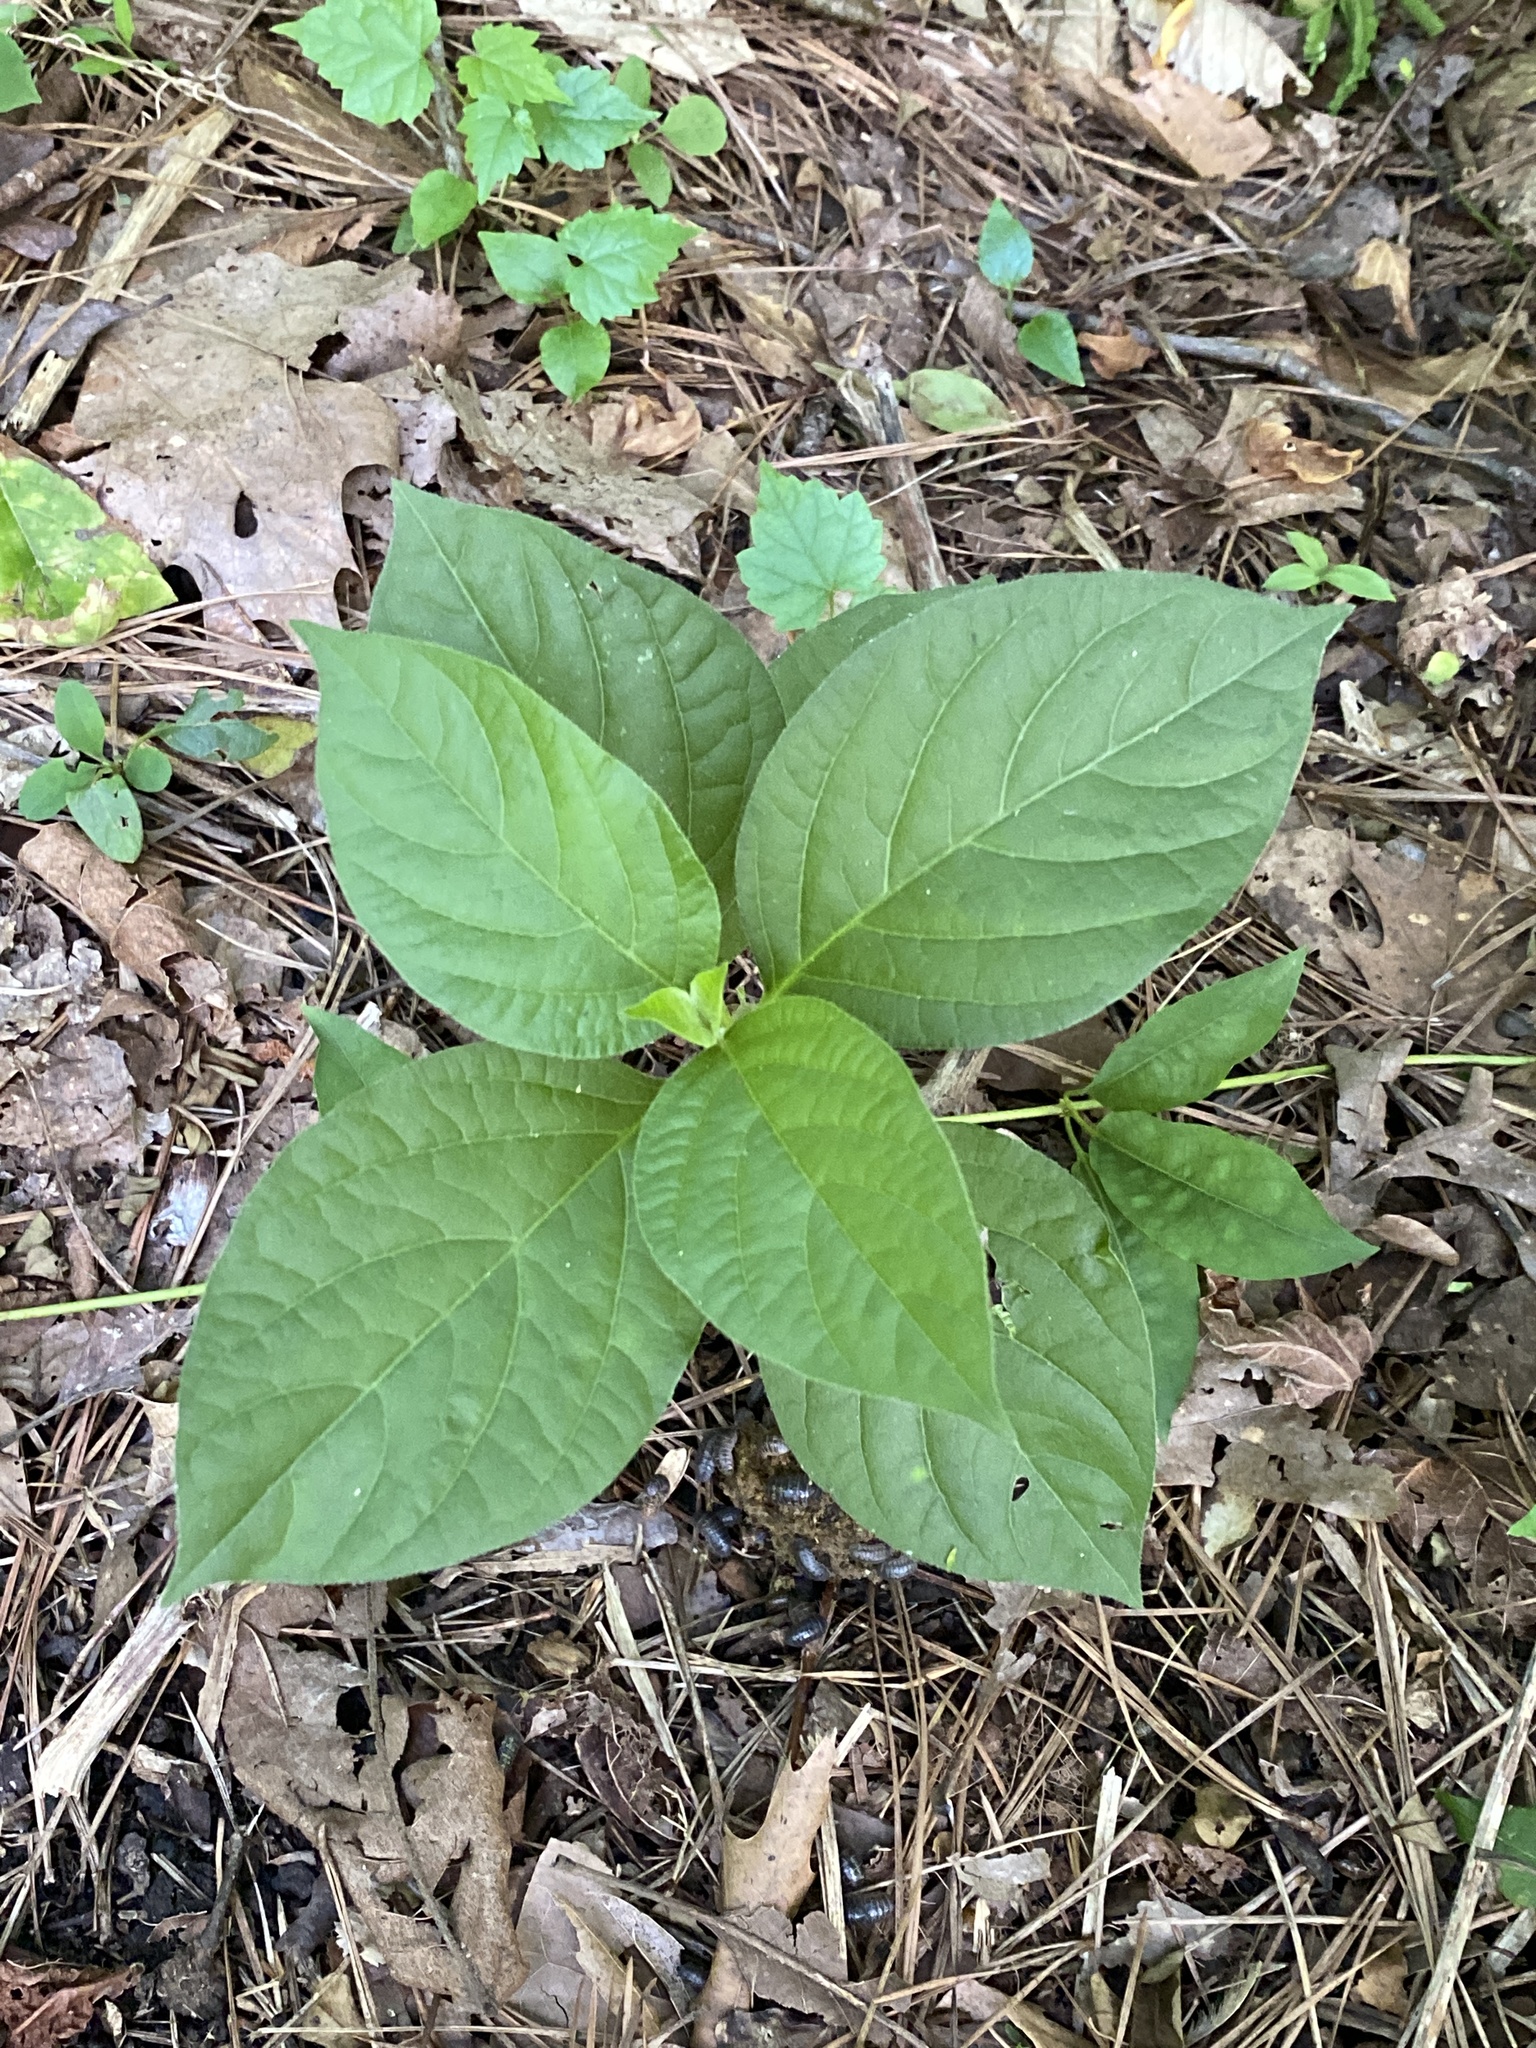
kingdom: Plantae
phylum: Tracheophyta
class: Magnoliopsida
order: Caryophyllales
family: Amaranthaceae
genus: Achyranthes
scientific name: Achyranthes bidentata
